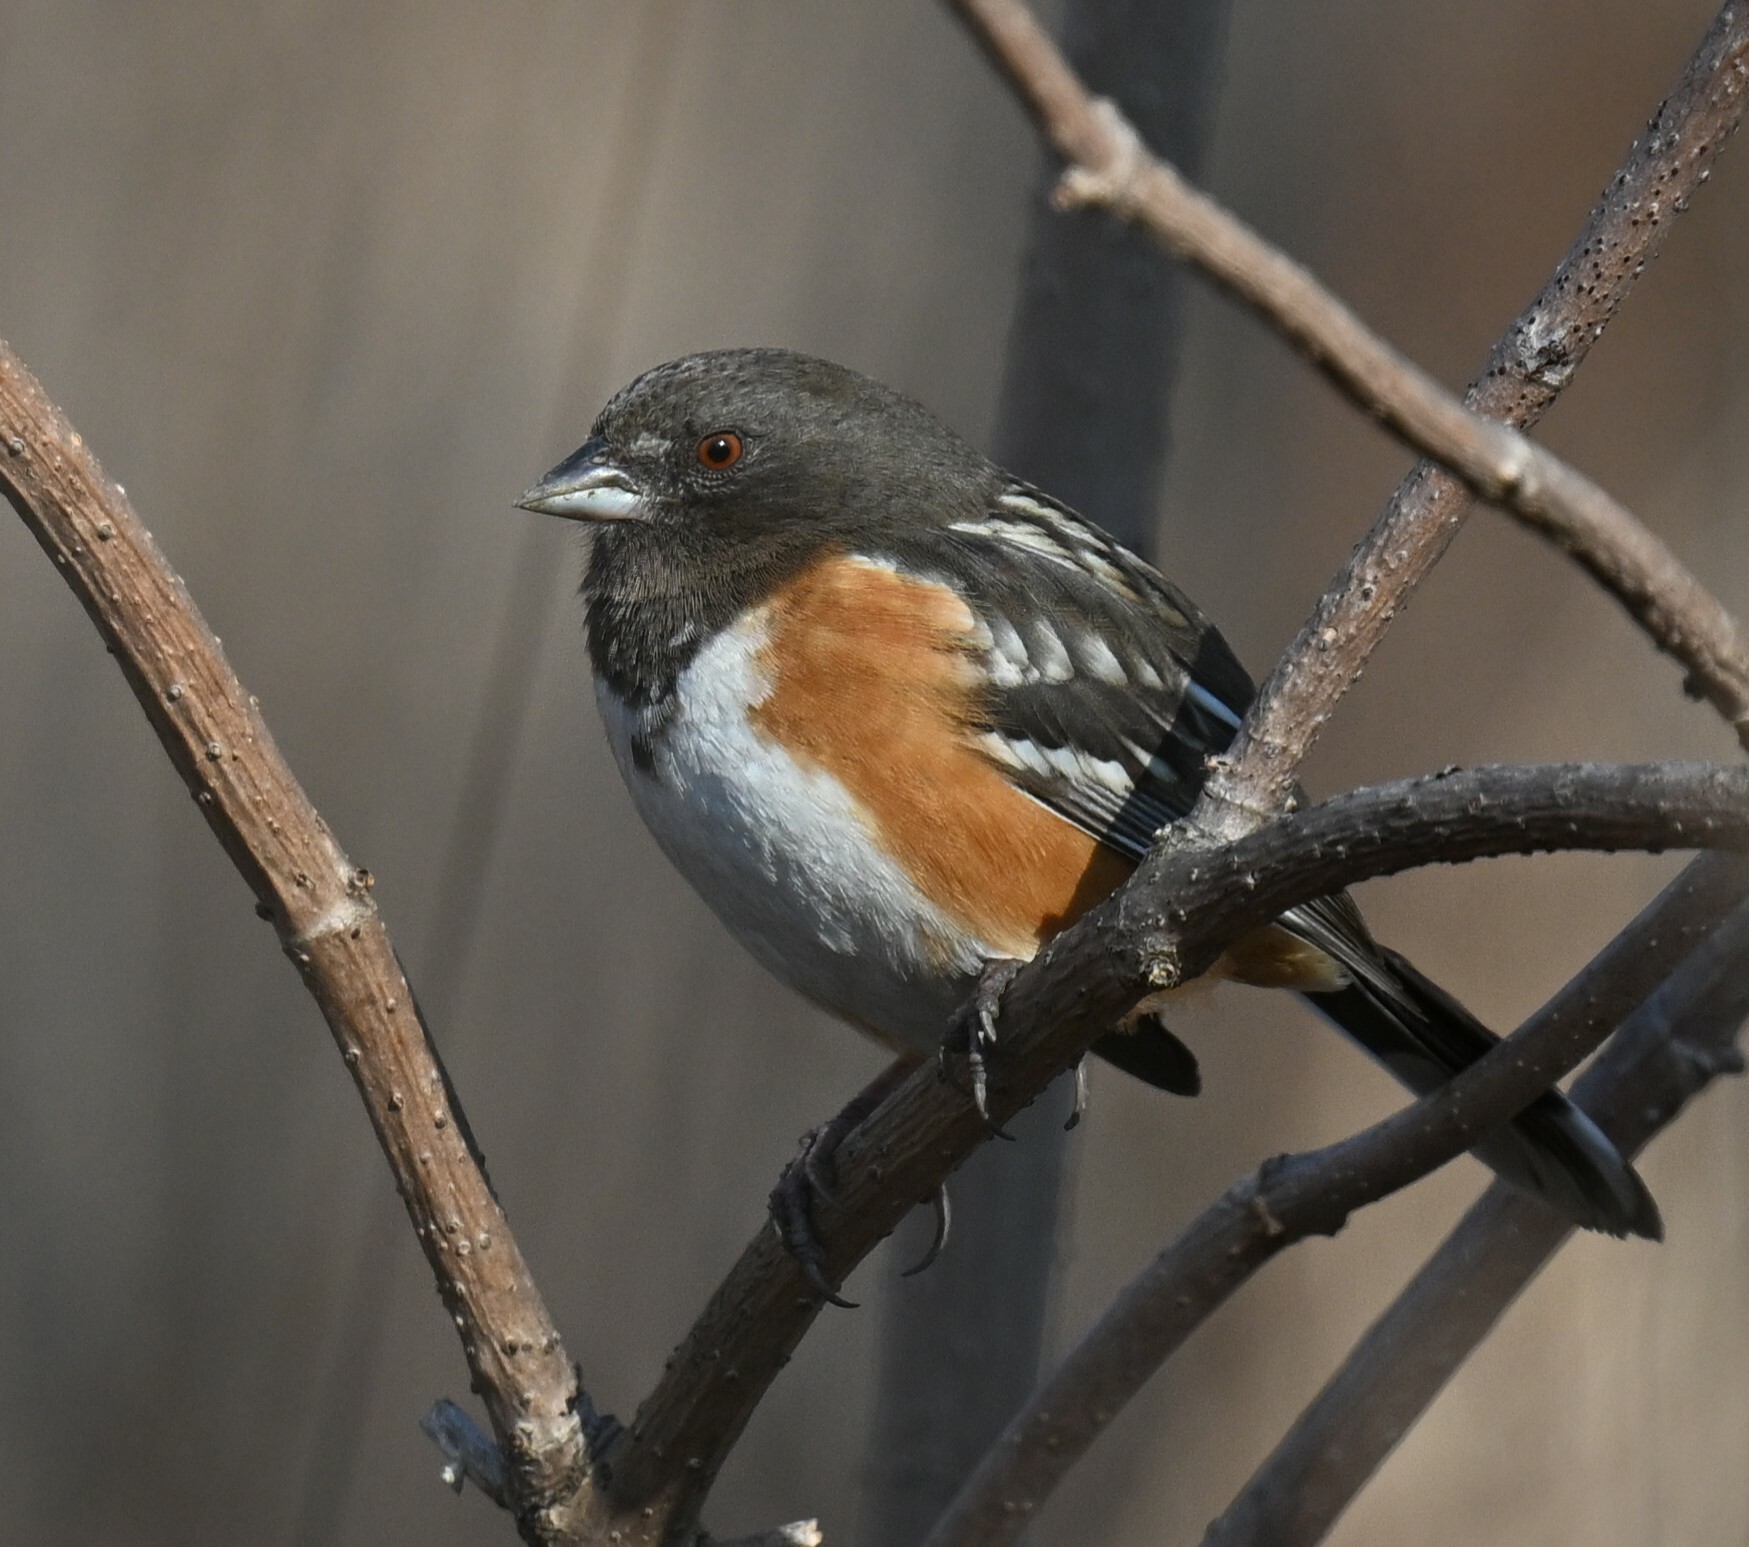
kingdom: Animalia
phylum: Chordata
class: Aves
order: Passeriformes
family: Passerellidae
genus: Pipilo
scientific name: Pipilo maculatus
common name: Spotted towhee
